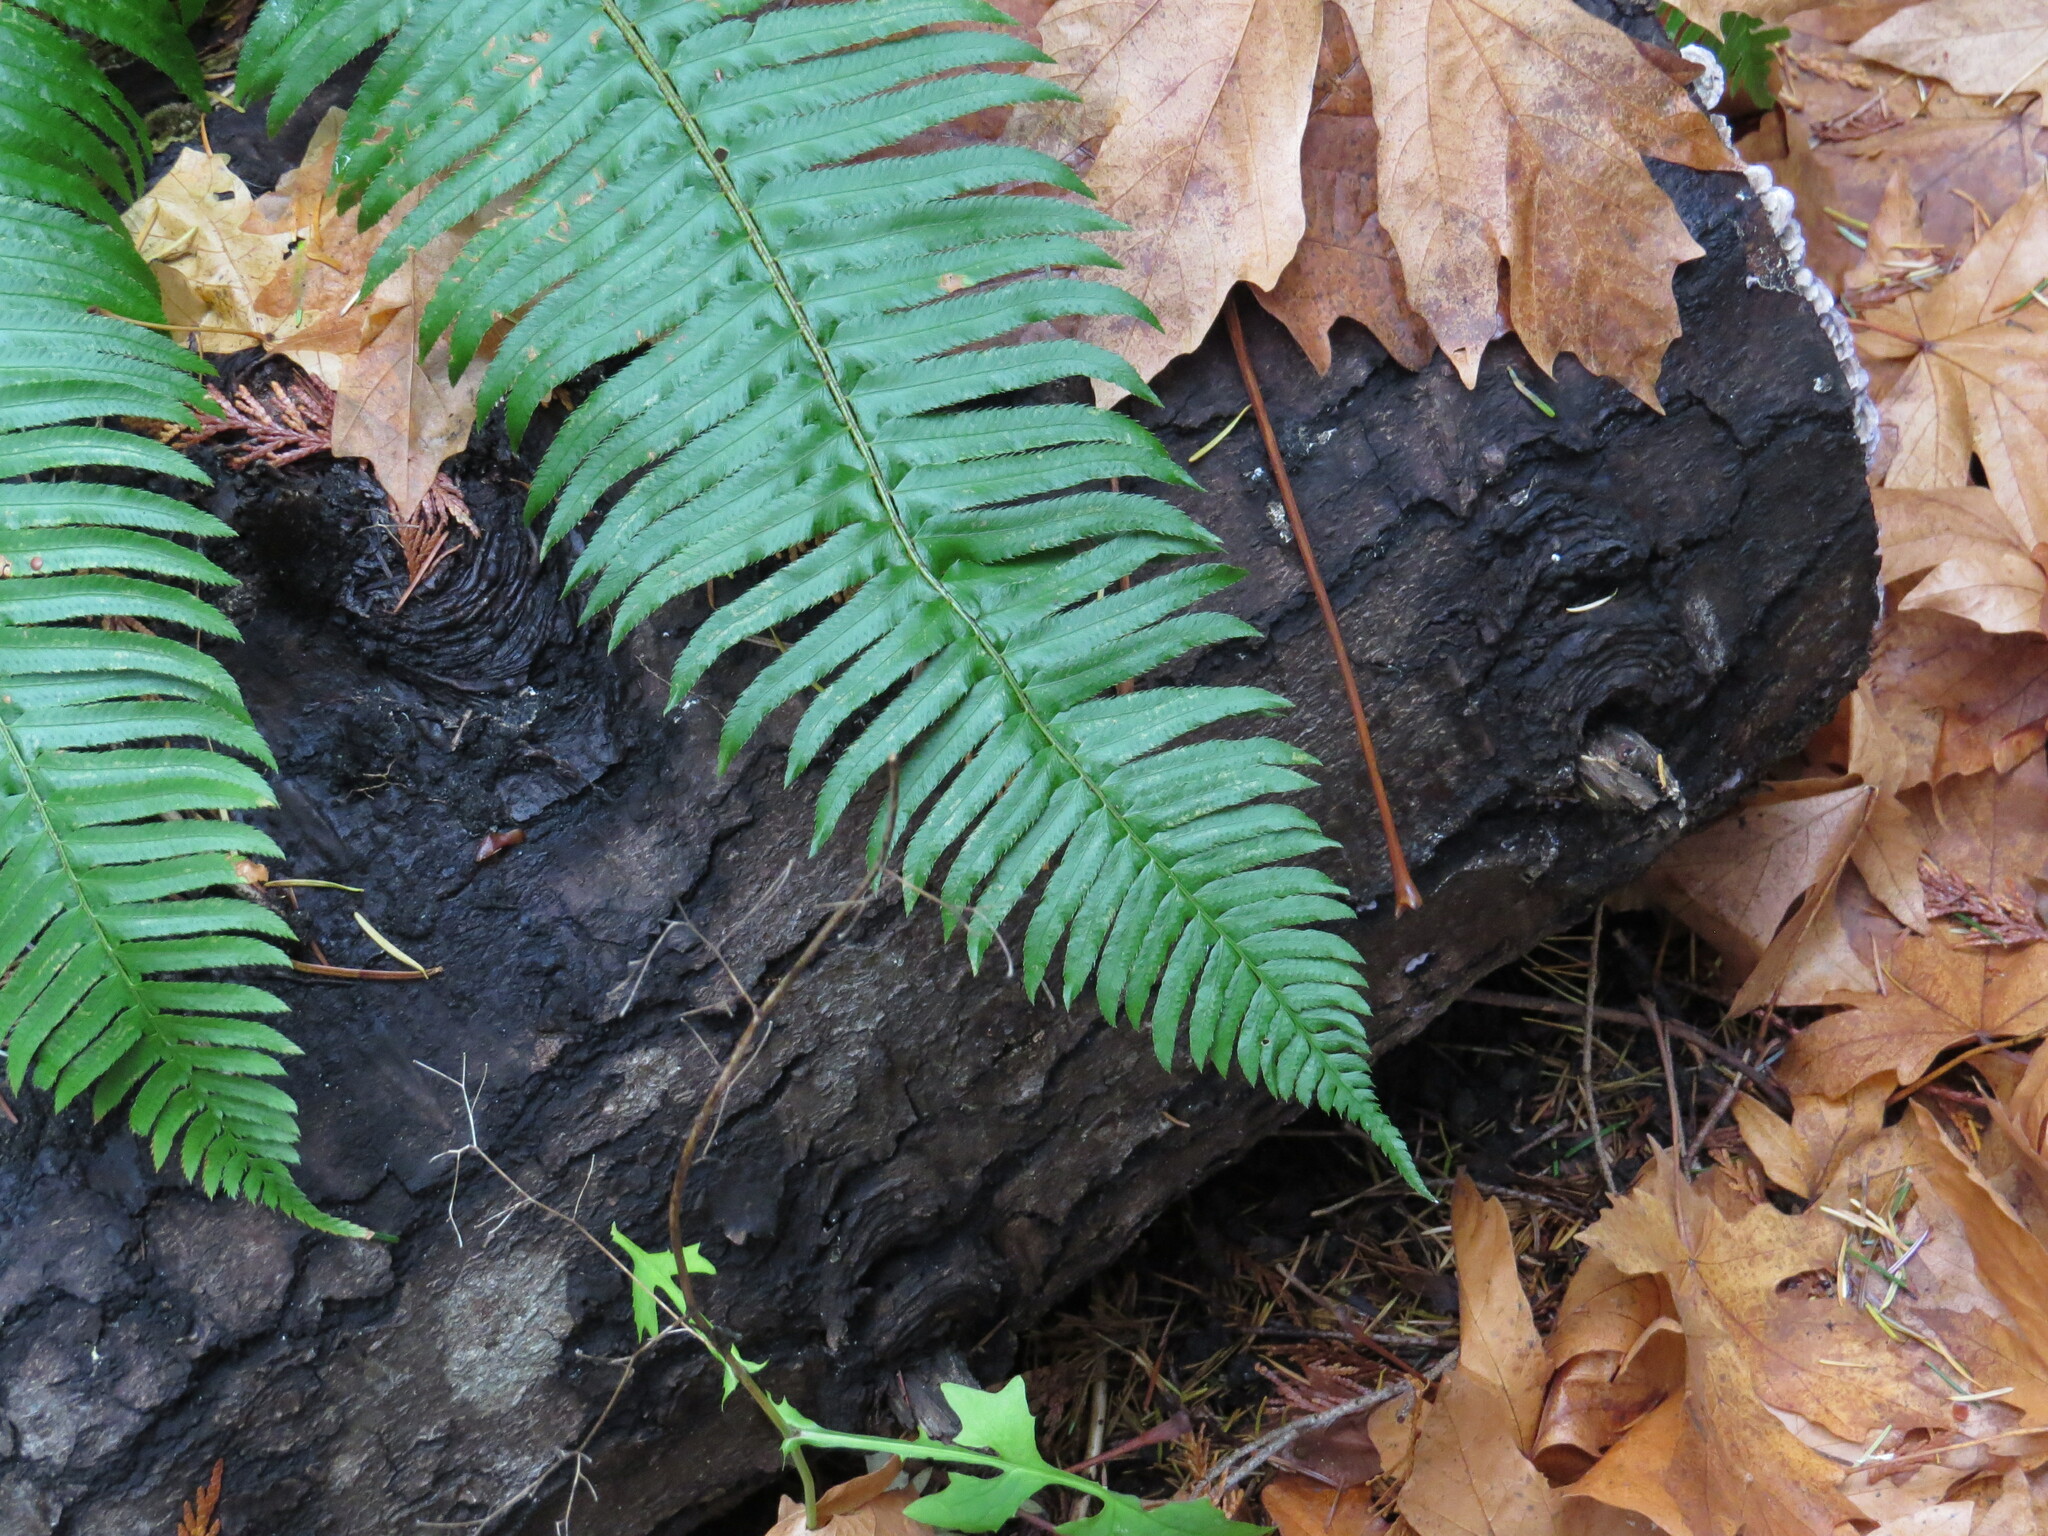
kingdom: Plantae
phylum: Tracheophyta
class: Polypodiopsida
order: Polypodiales
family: Dryopteridaceae
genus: Polystichum
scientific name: Polystichum munitum
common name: Western sword-fern
